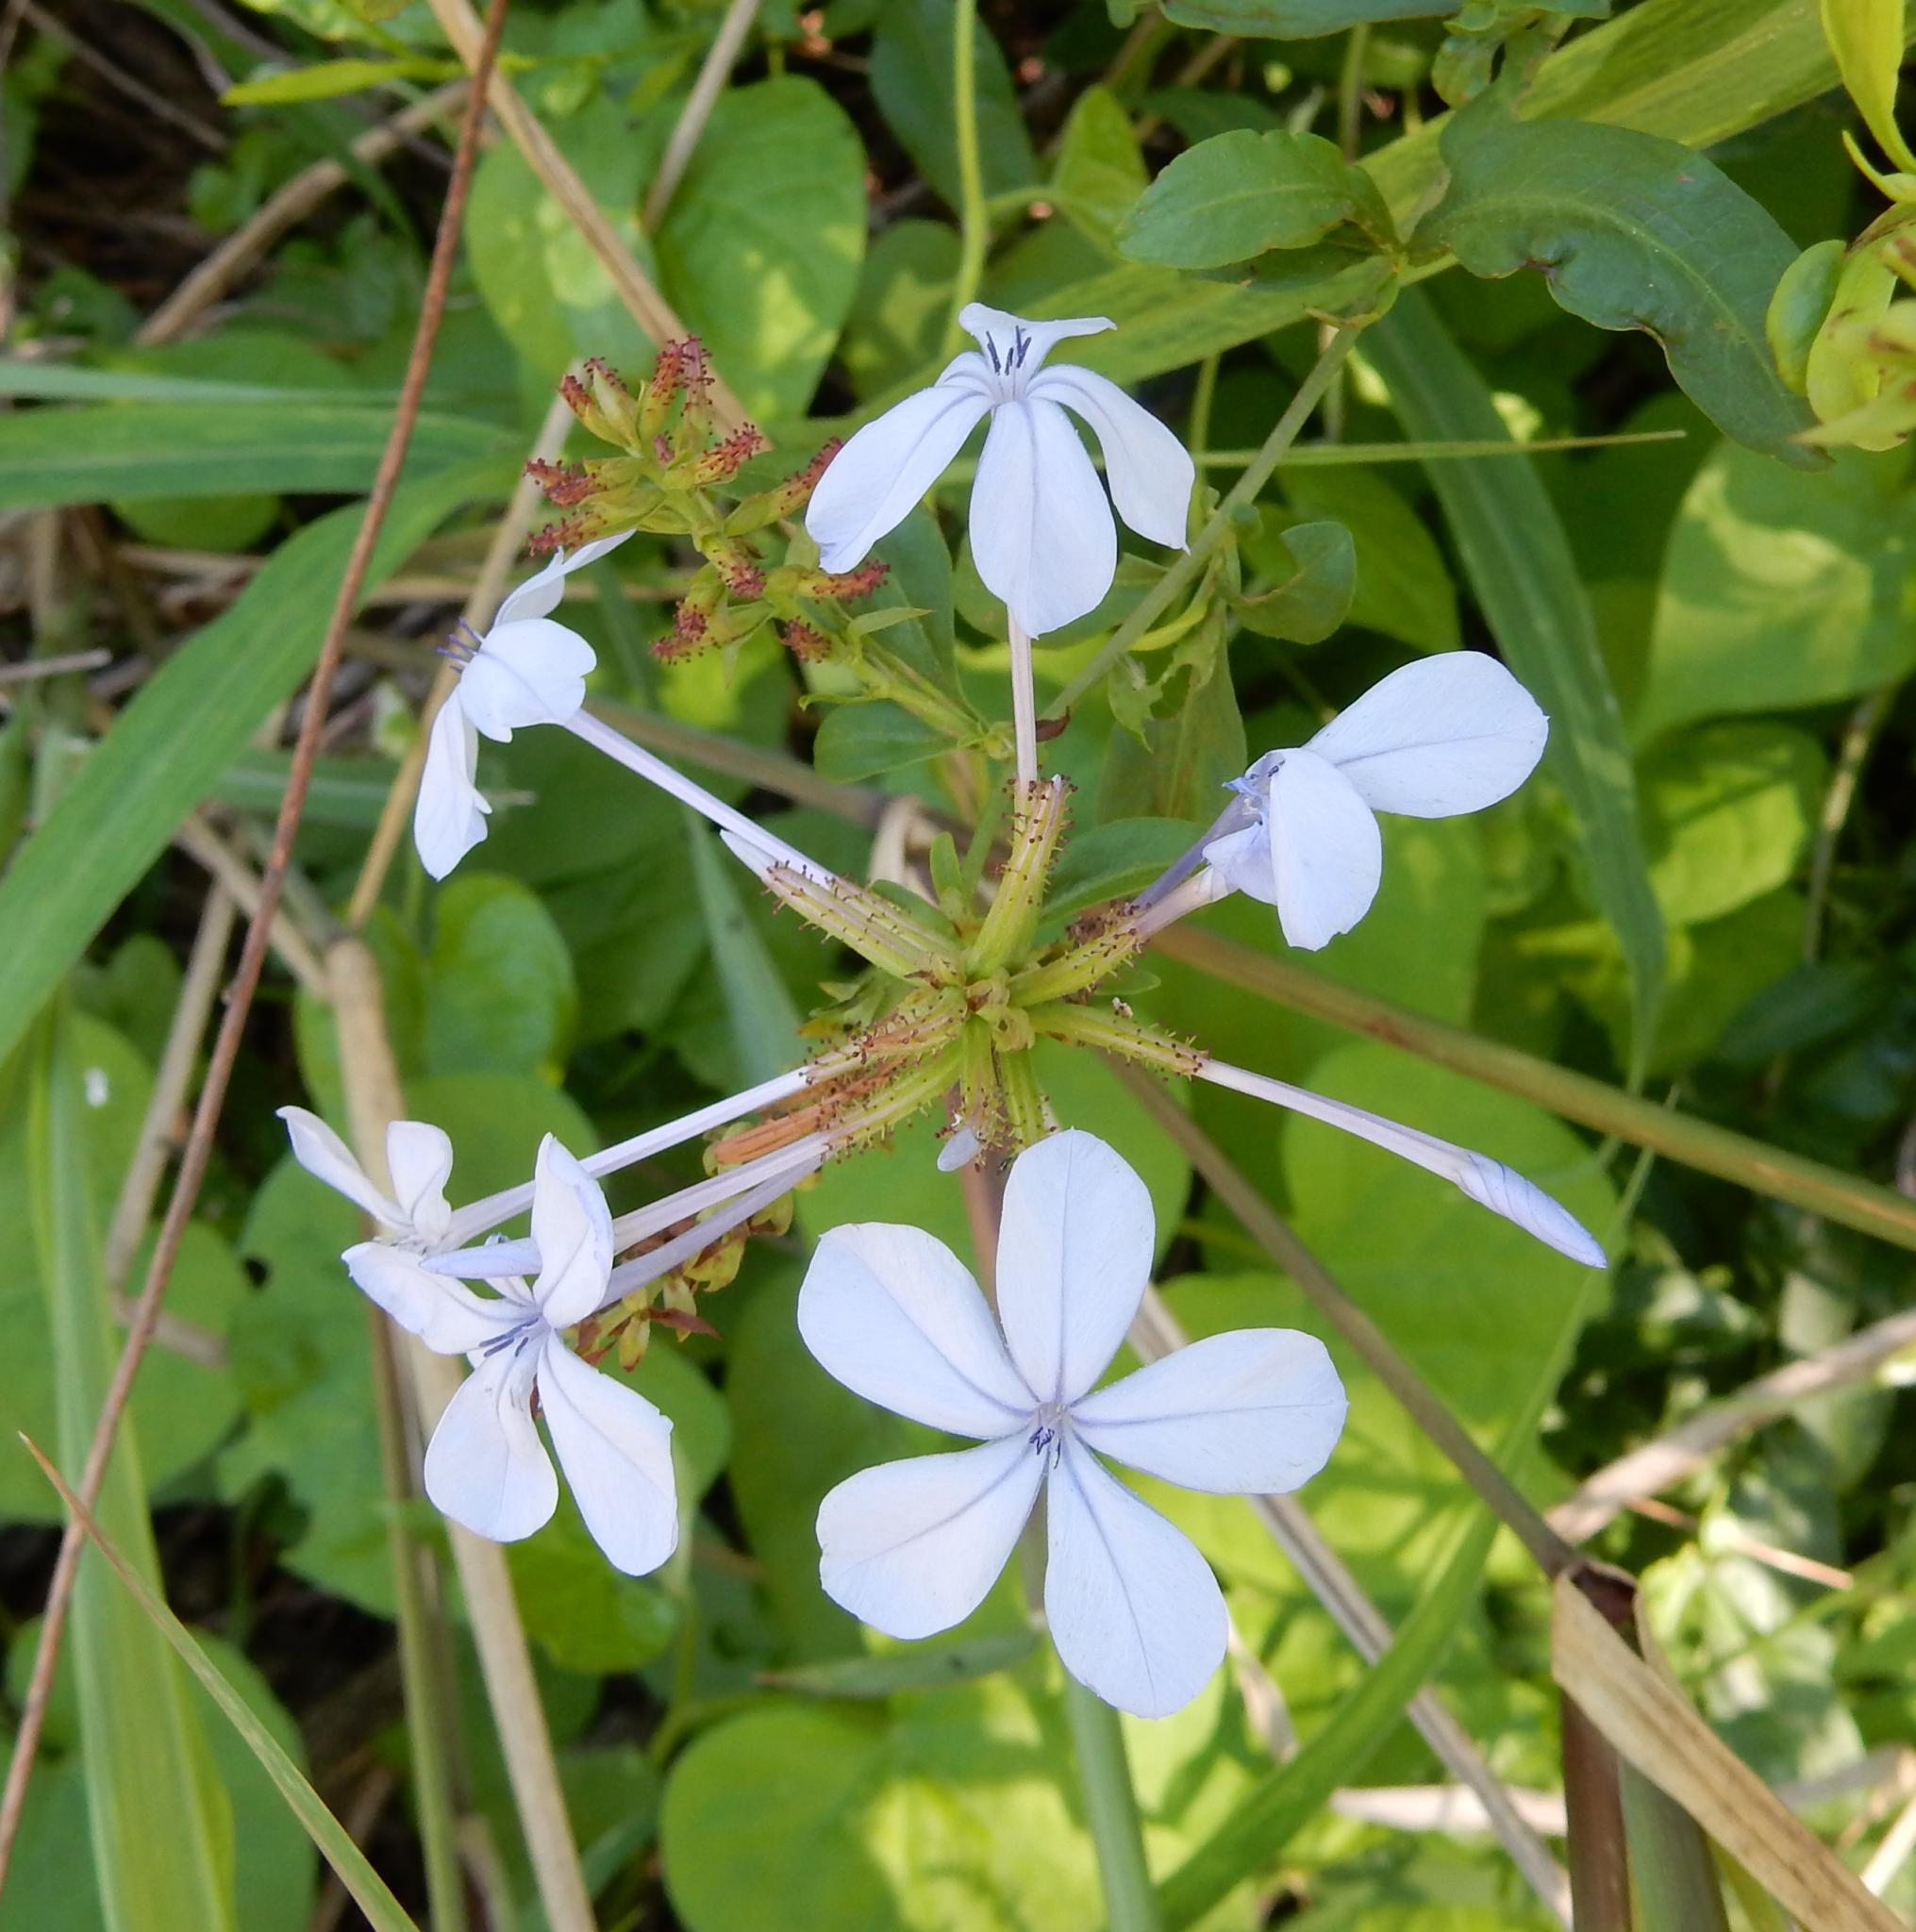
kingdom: Plantae
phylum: Tracheophyta
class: Magnoliopsida
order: Caryophyllales
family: Plumbaginaceae
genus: Plumbago
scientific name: Plumbago auriculata
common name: Cape leadwort
